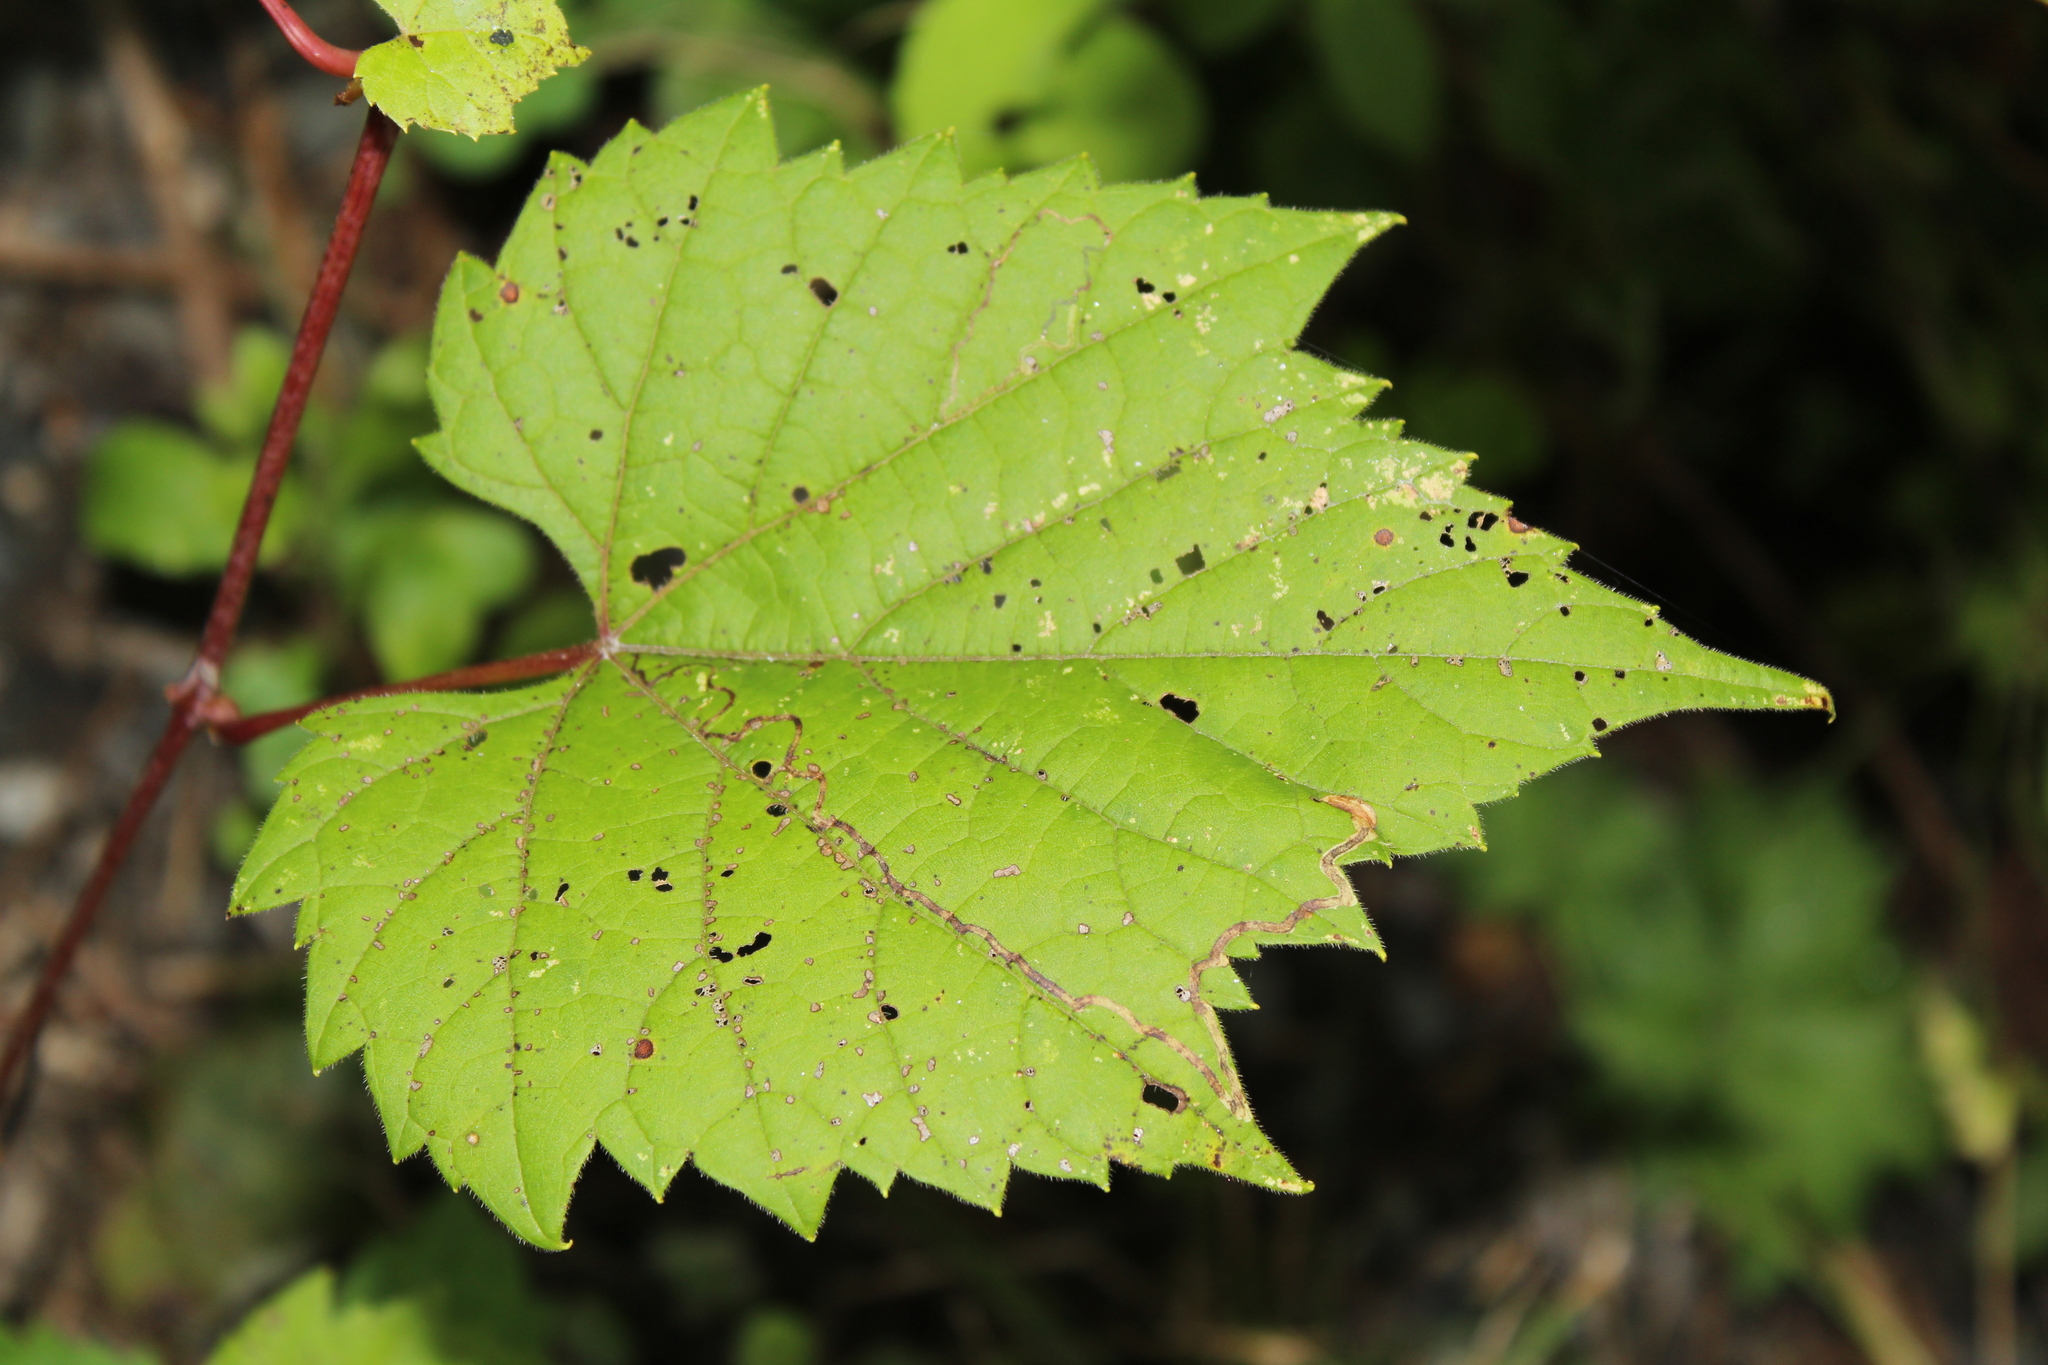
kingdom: Animalia
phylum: Arthropoda
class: Insecta
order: Lepidoptera
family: Gracillariidae
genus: Phyllocnistis
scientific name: Phyllocnistis vitifoliella
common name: Grape leaf-miner moth
